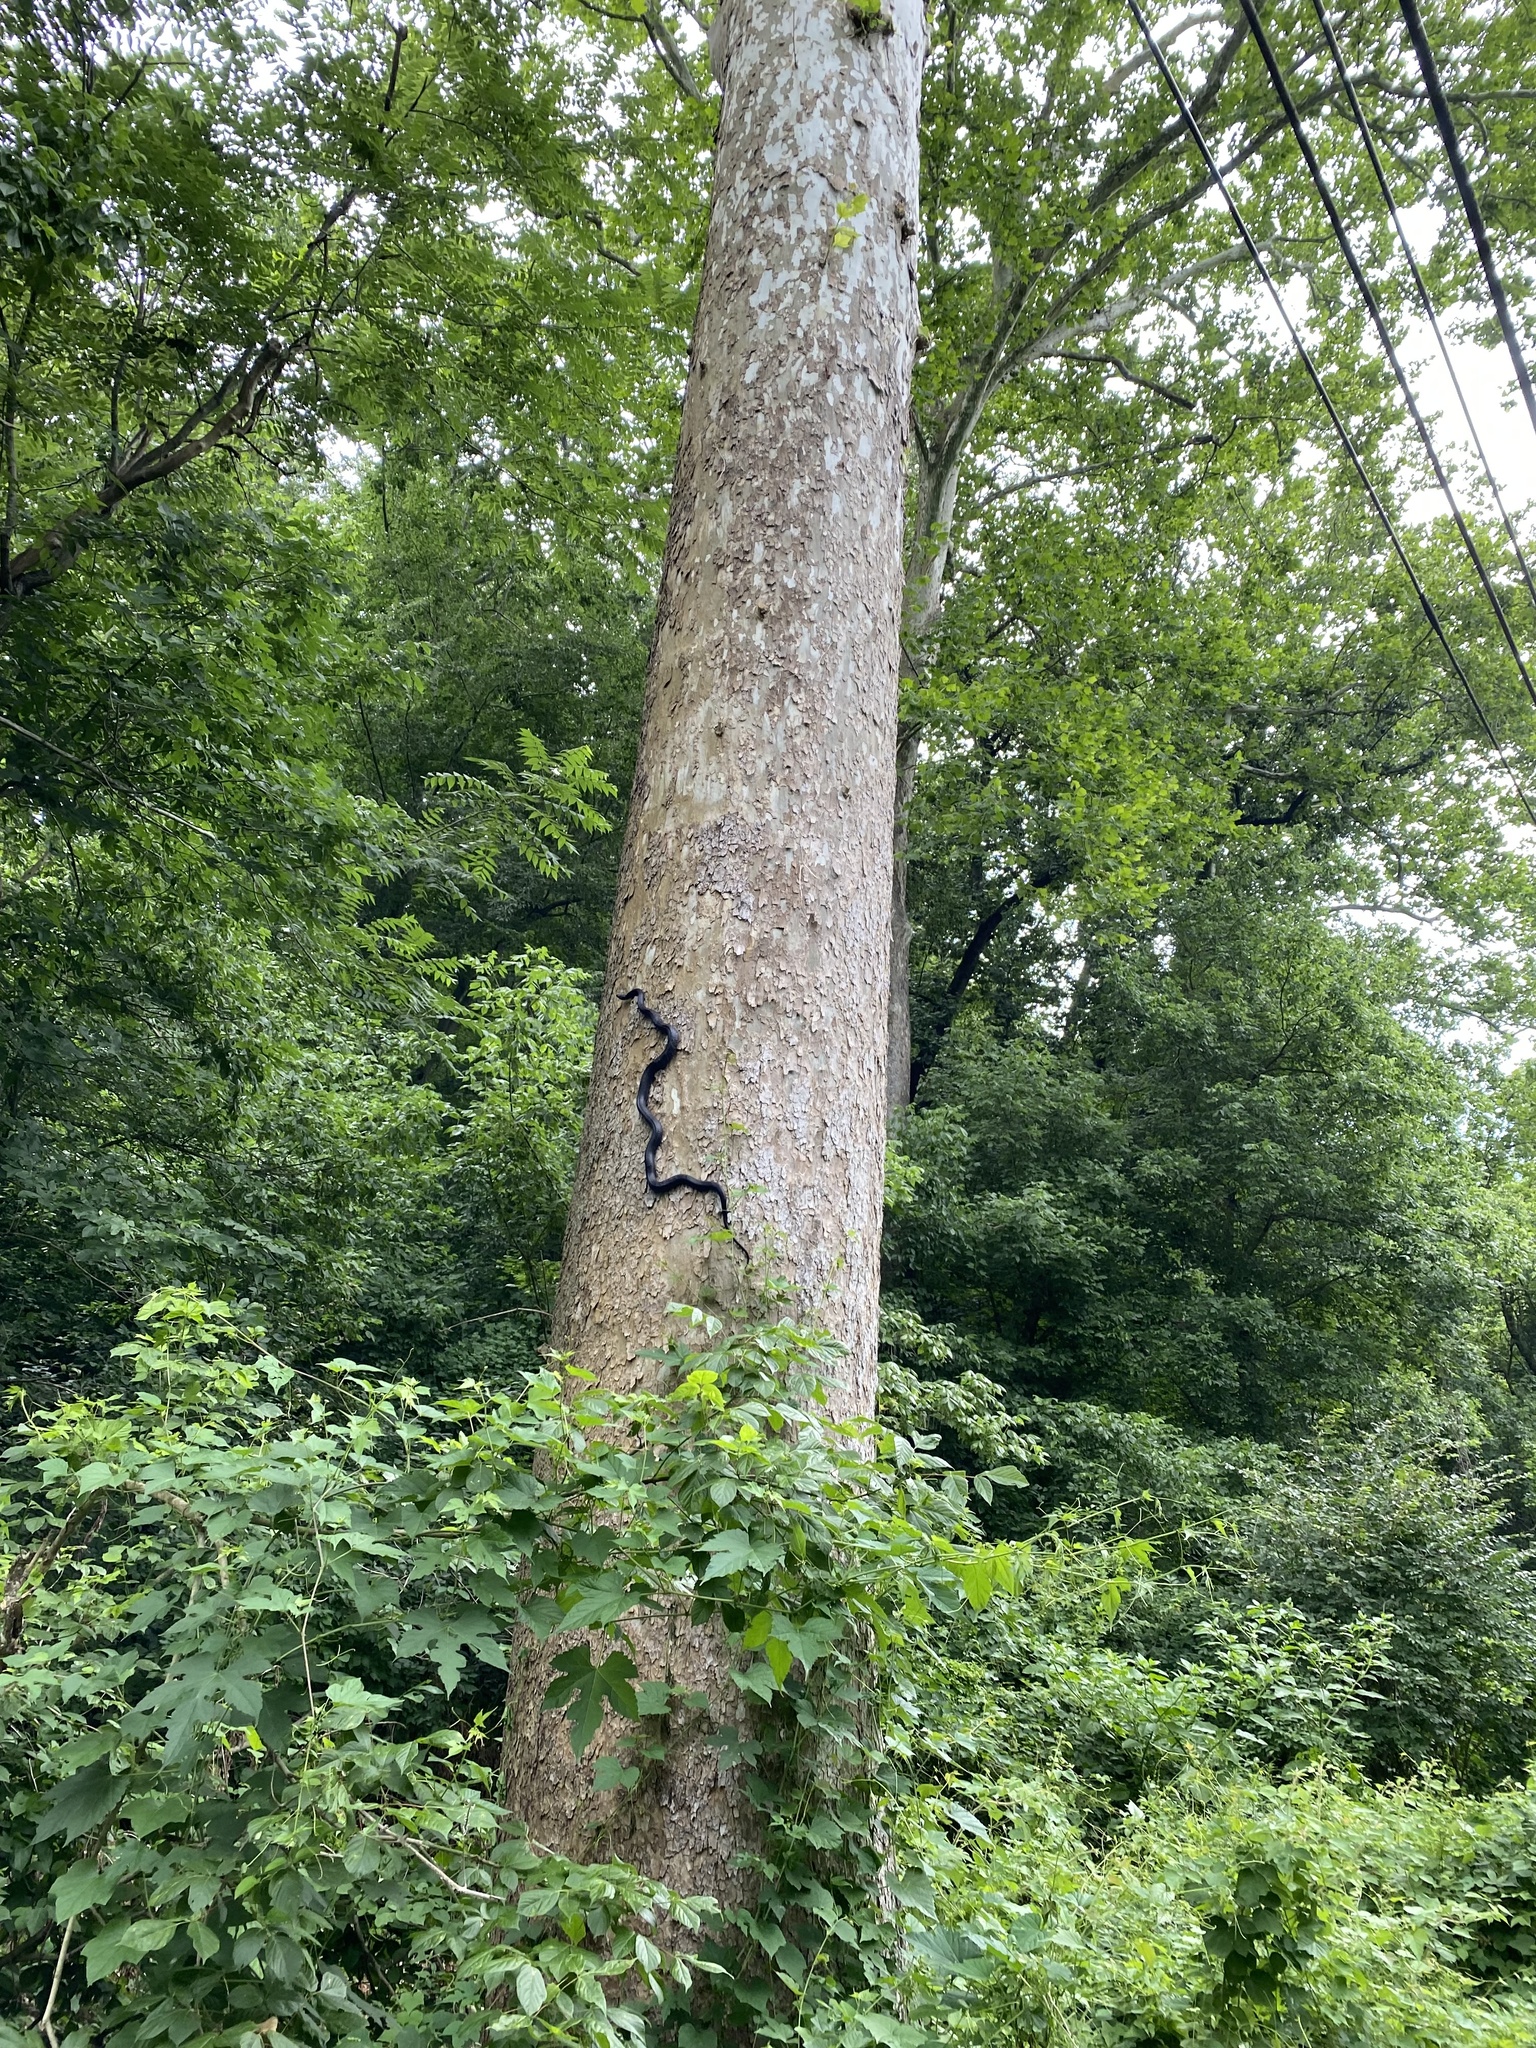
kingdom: Animalia
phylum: Chordata
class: Squamata
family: Colubridae
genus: Pantherophis
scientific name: Pantherophis alleghaniensis
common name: Eastern rat snake
